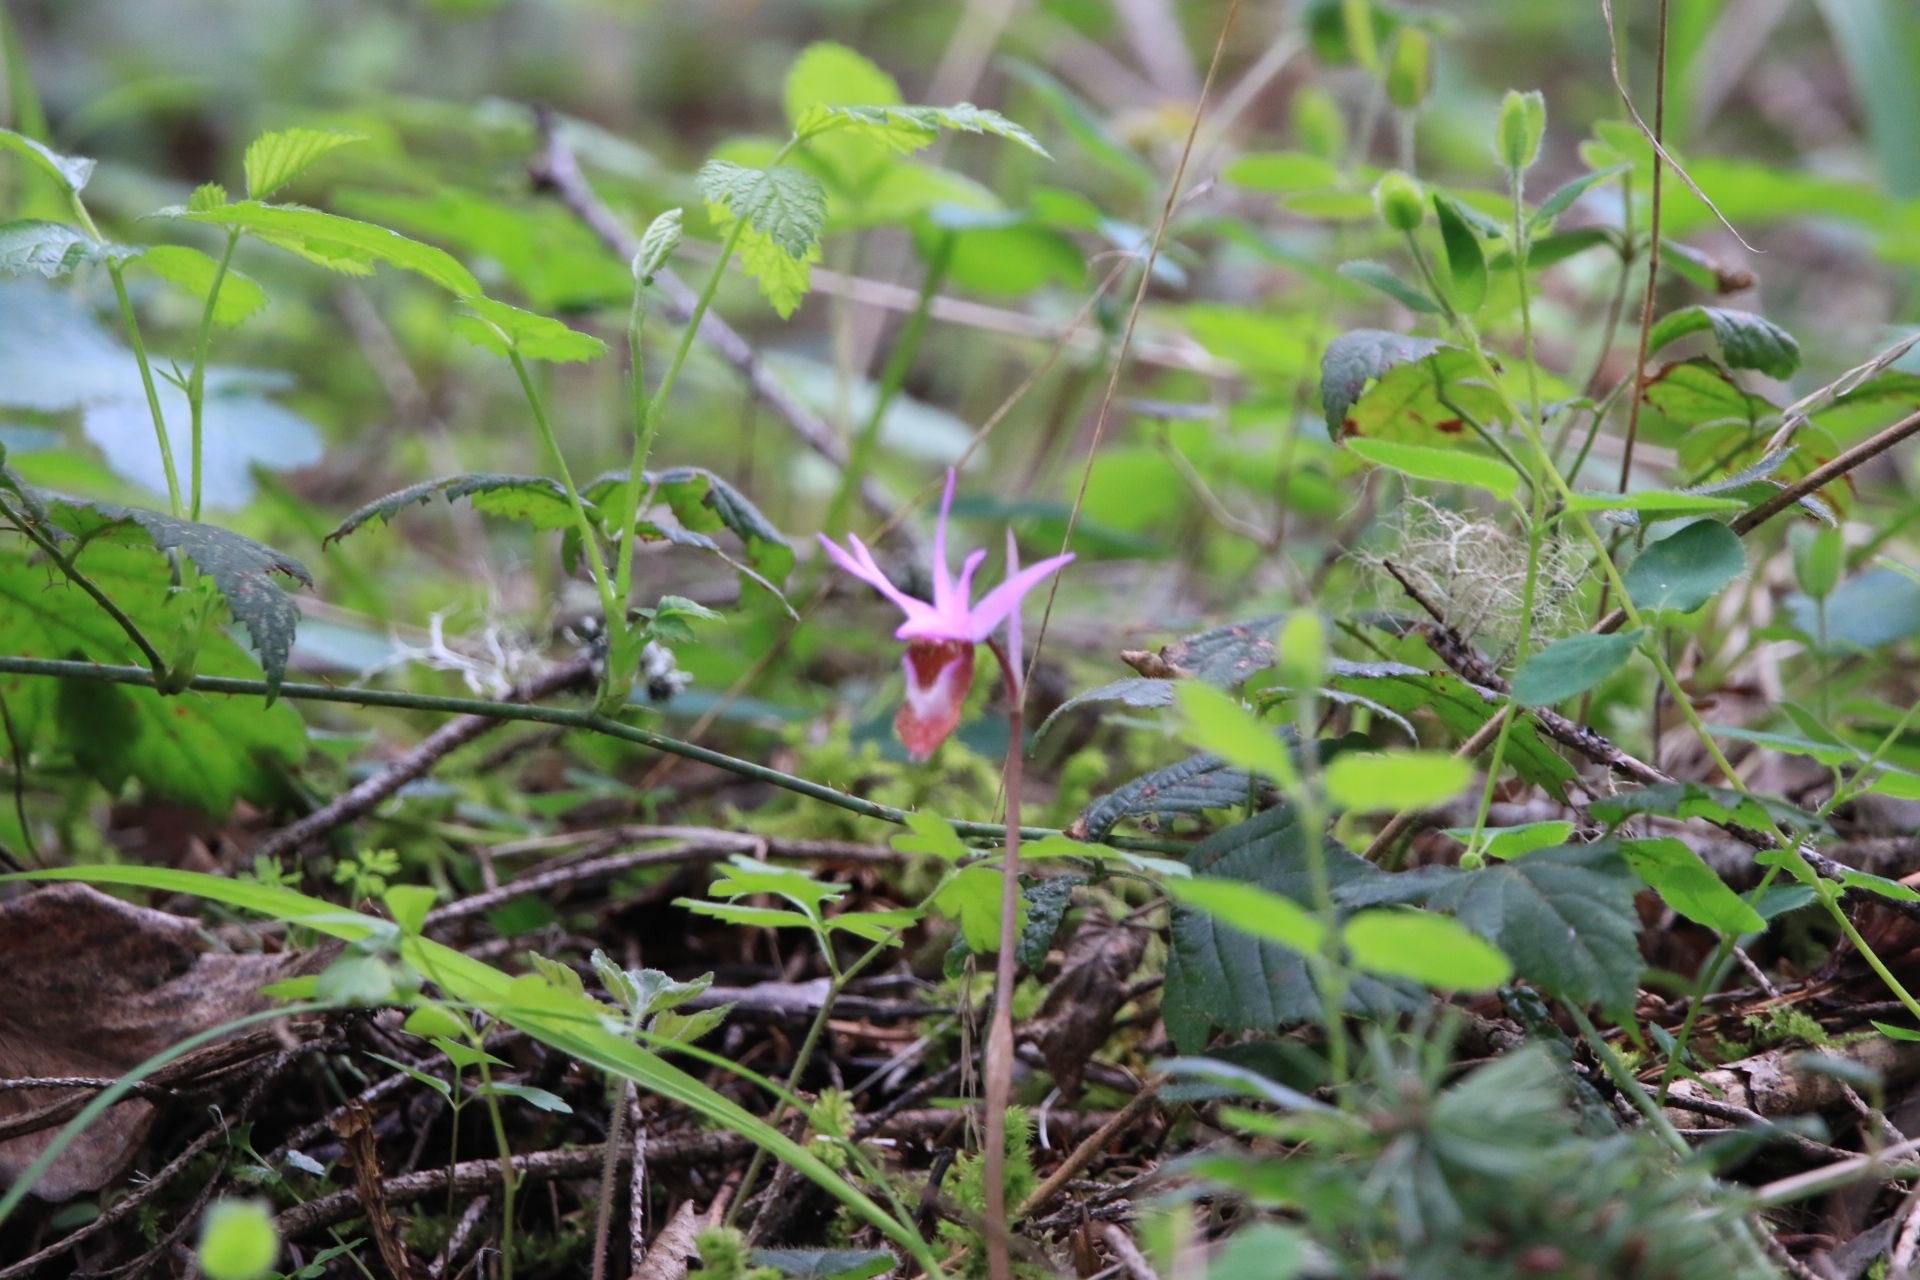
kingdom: Plantae
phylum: Tracheophyta
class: Liliopsida
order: Asparagales
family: Orchidaceae
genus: Calypso
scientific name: Calypso bulbosa
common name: Calypso
